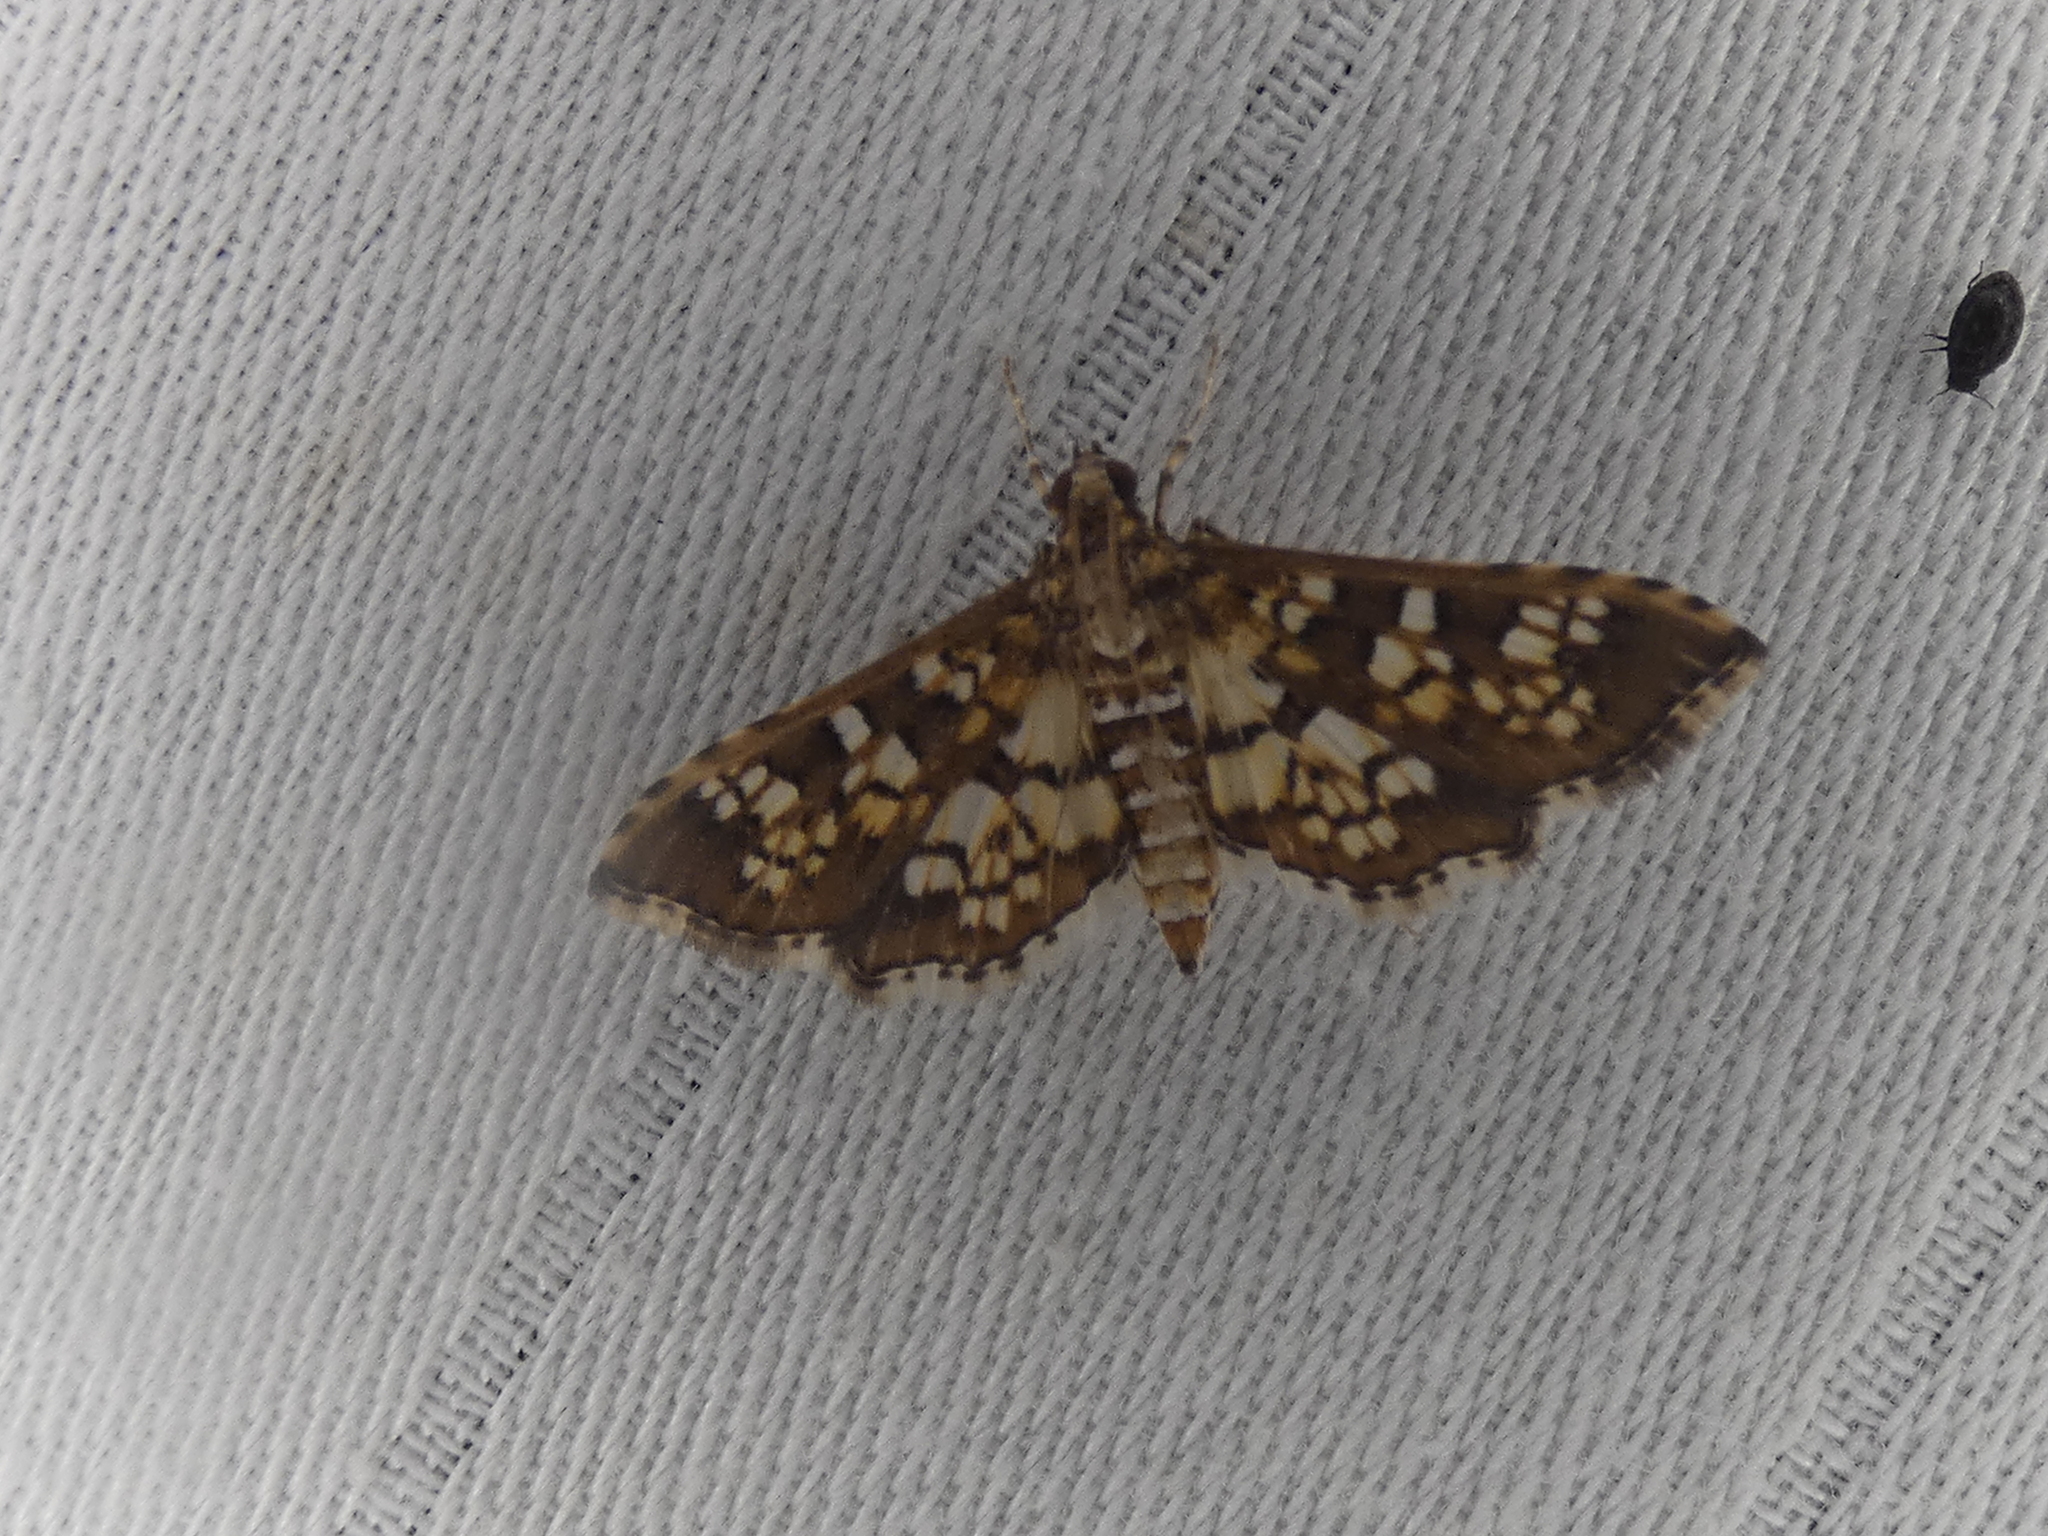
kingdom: Animalia
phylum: Arthropoda
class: Insecta
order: Lepidoptera
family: Crambidae
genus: Samea
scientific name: Samea ecclesialis
